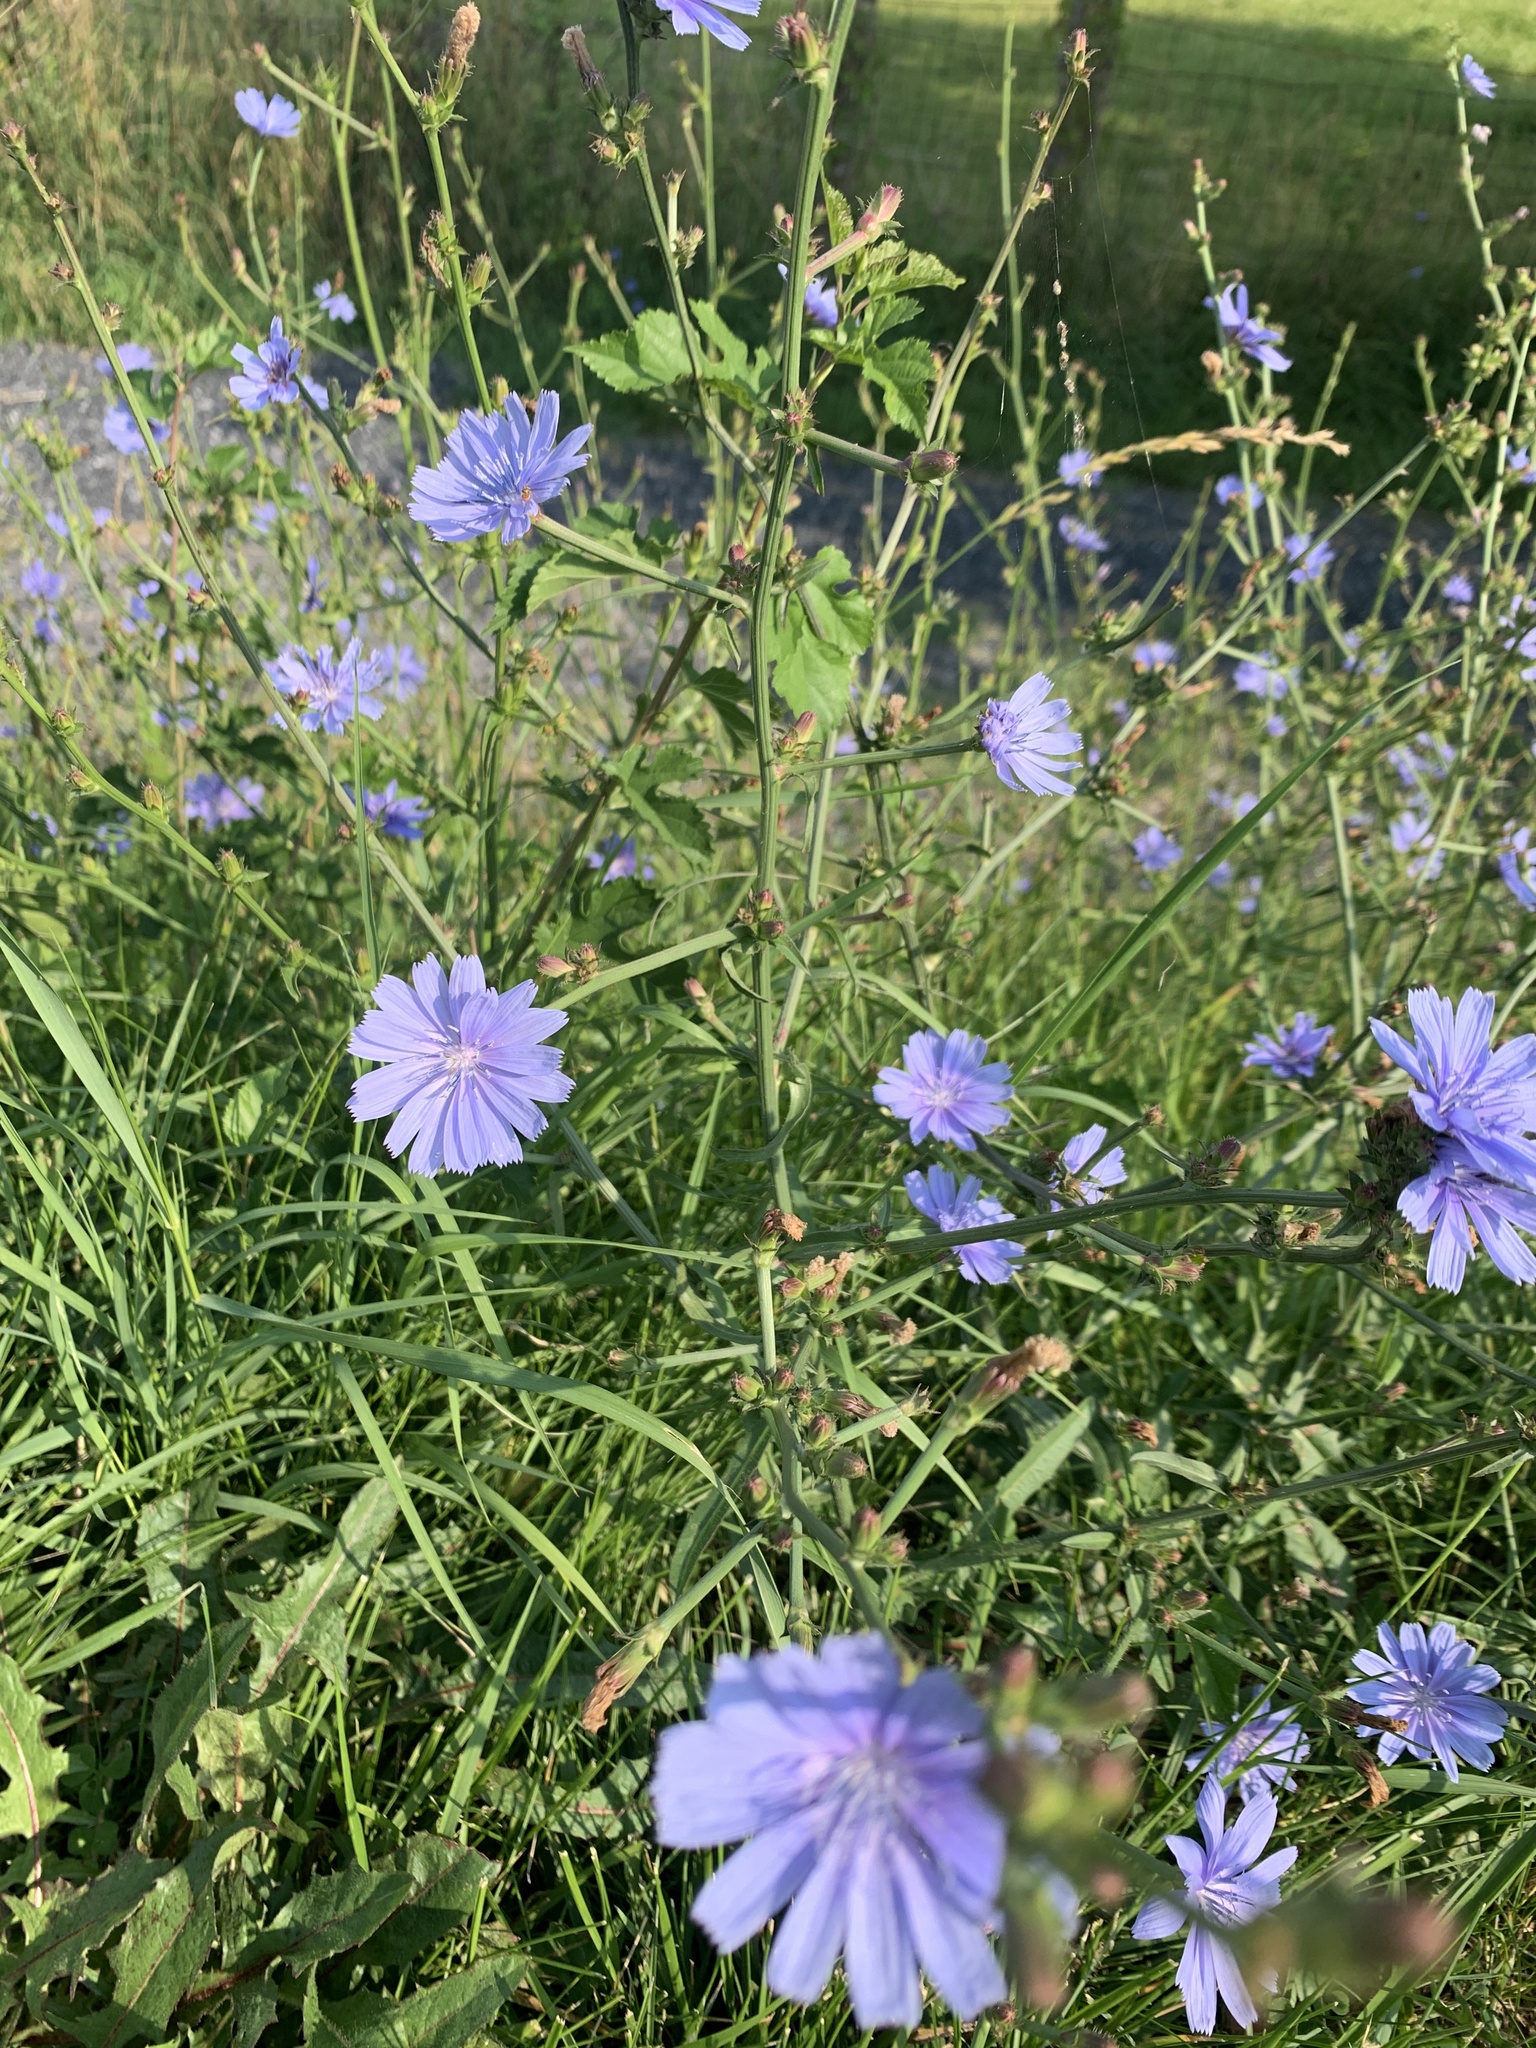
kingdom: Plantae
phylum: Tracheophyta
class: Magnoliopsida
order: Asterales
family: Asteraceae
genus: Cichorium
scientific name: Cichorium intybus
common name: Chicory
